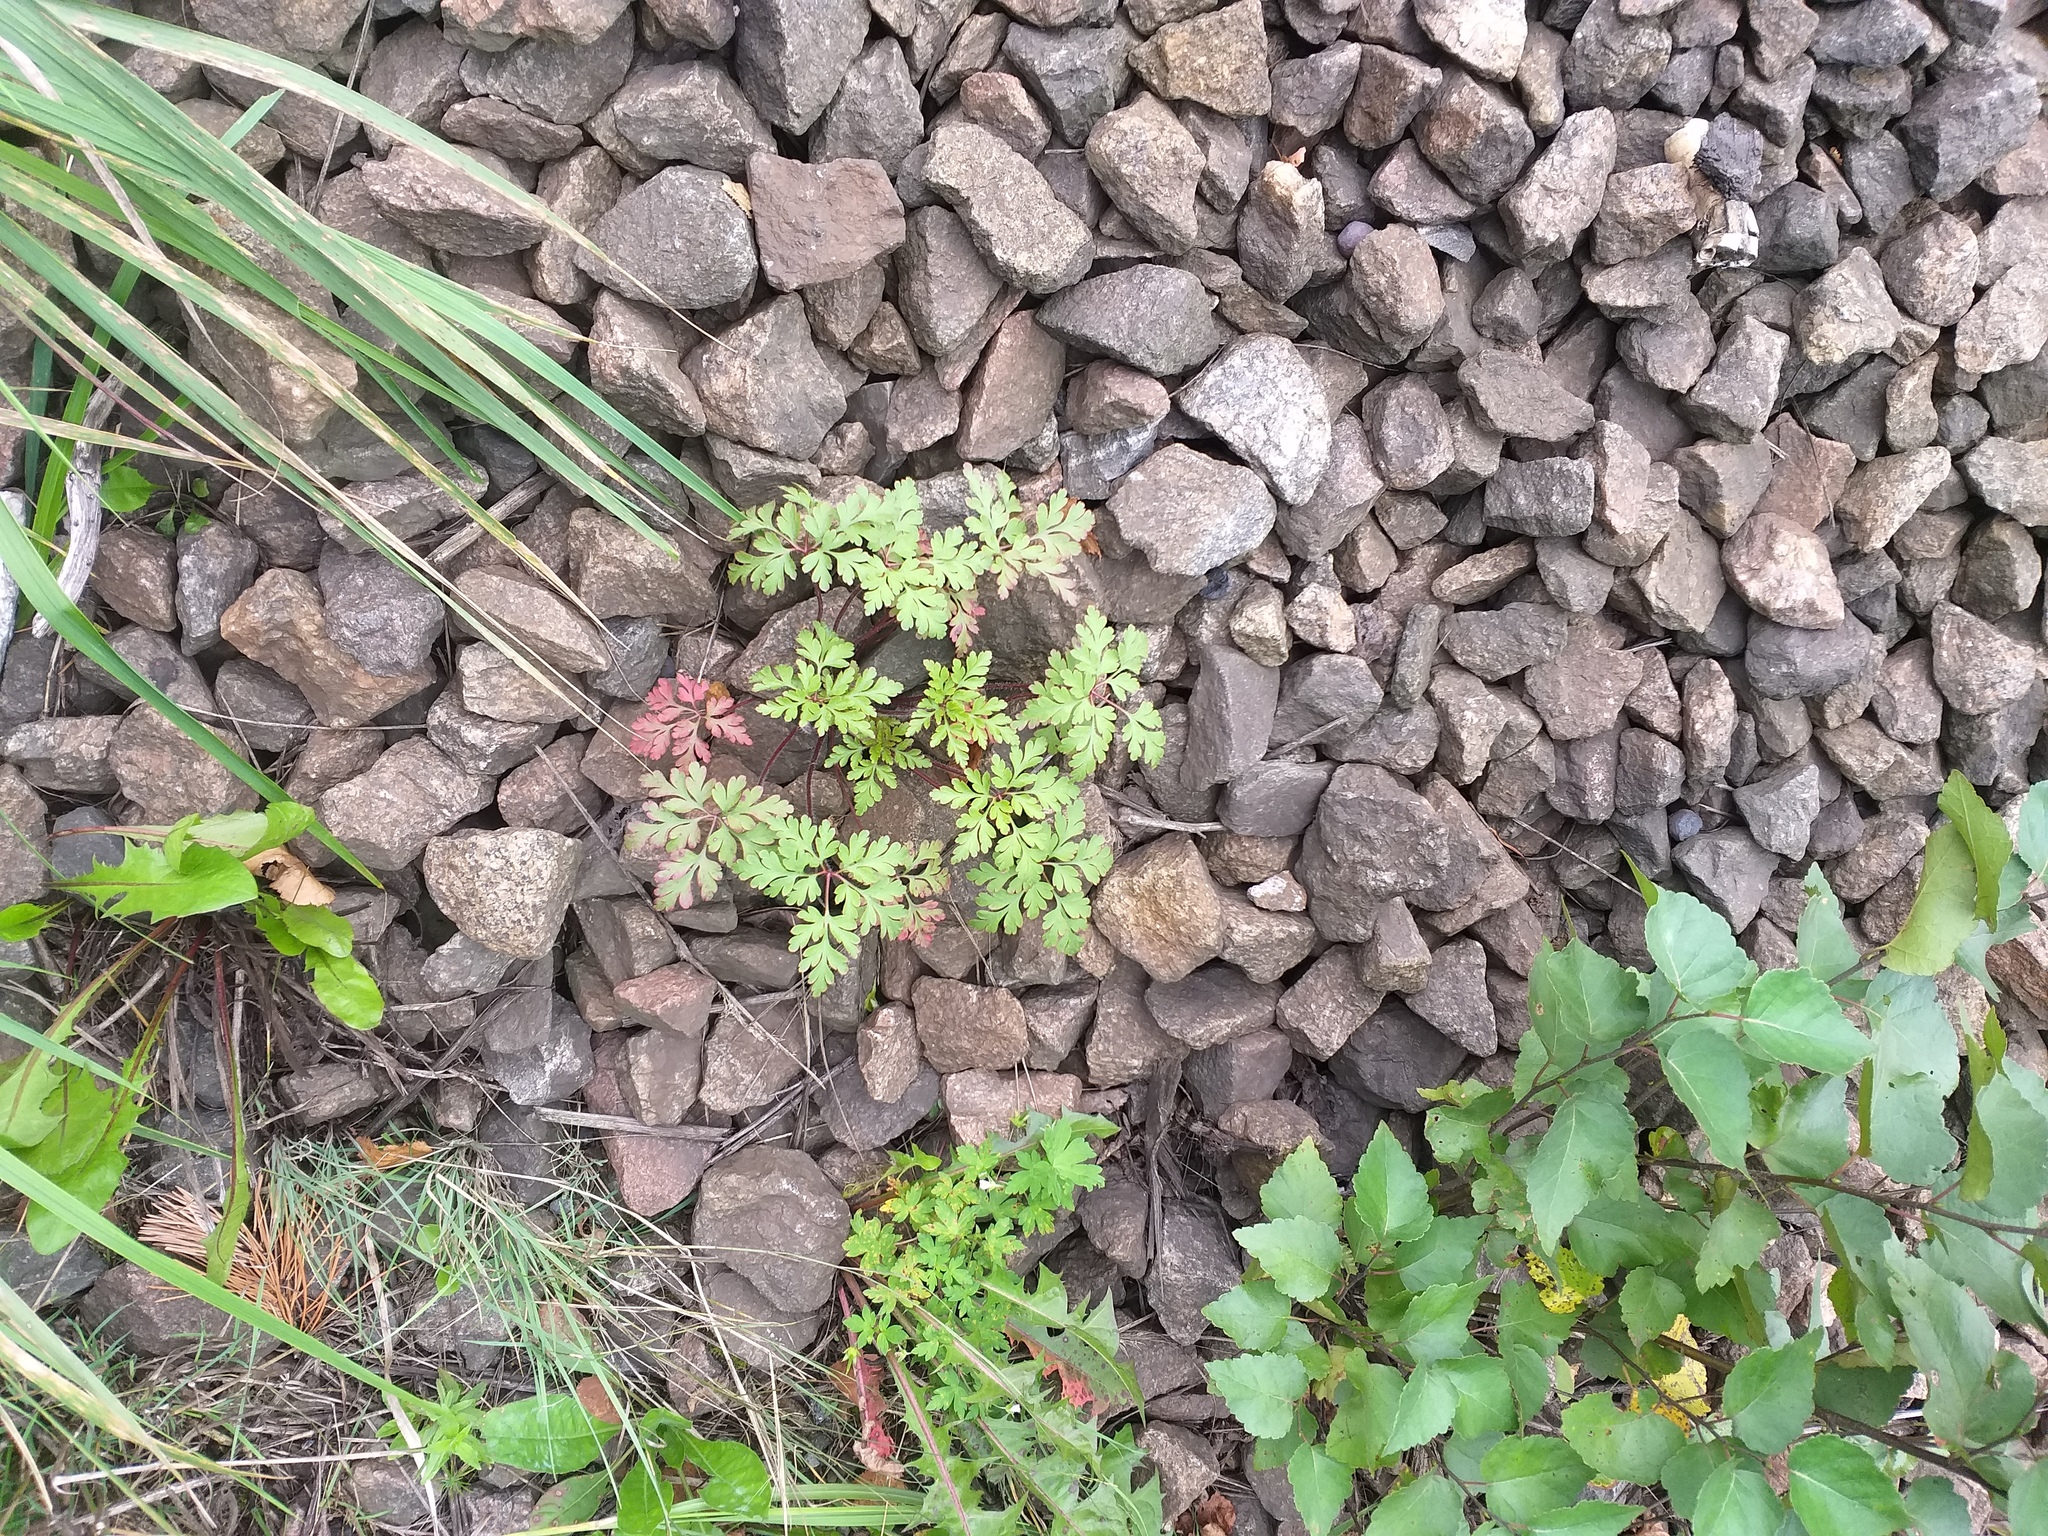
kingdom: Plantae
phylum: Tracheophyta
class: Magnoliopsida
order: Geraniales
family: Geraniaceae
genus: Geranium
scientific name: Geranium robertianum
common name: Herb-robert
